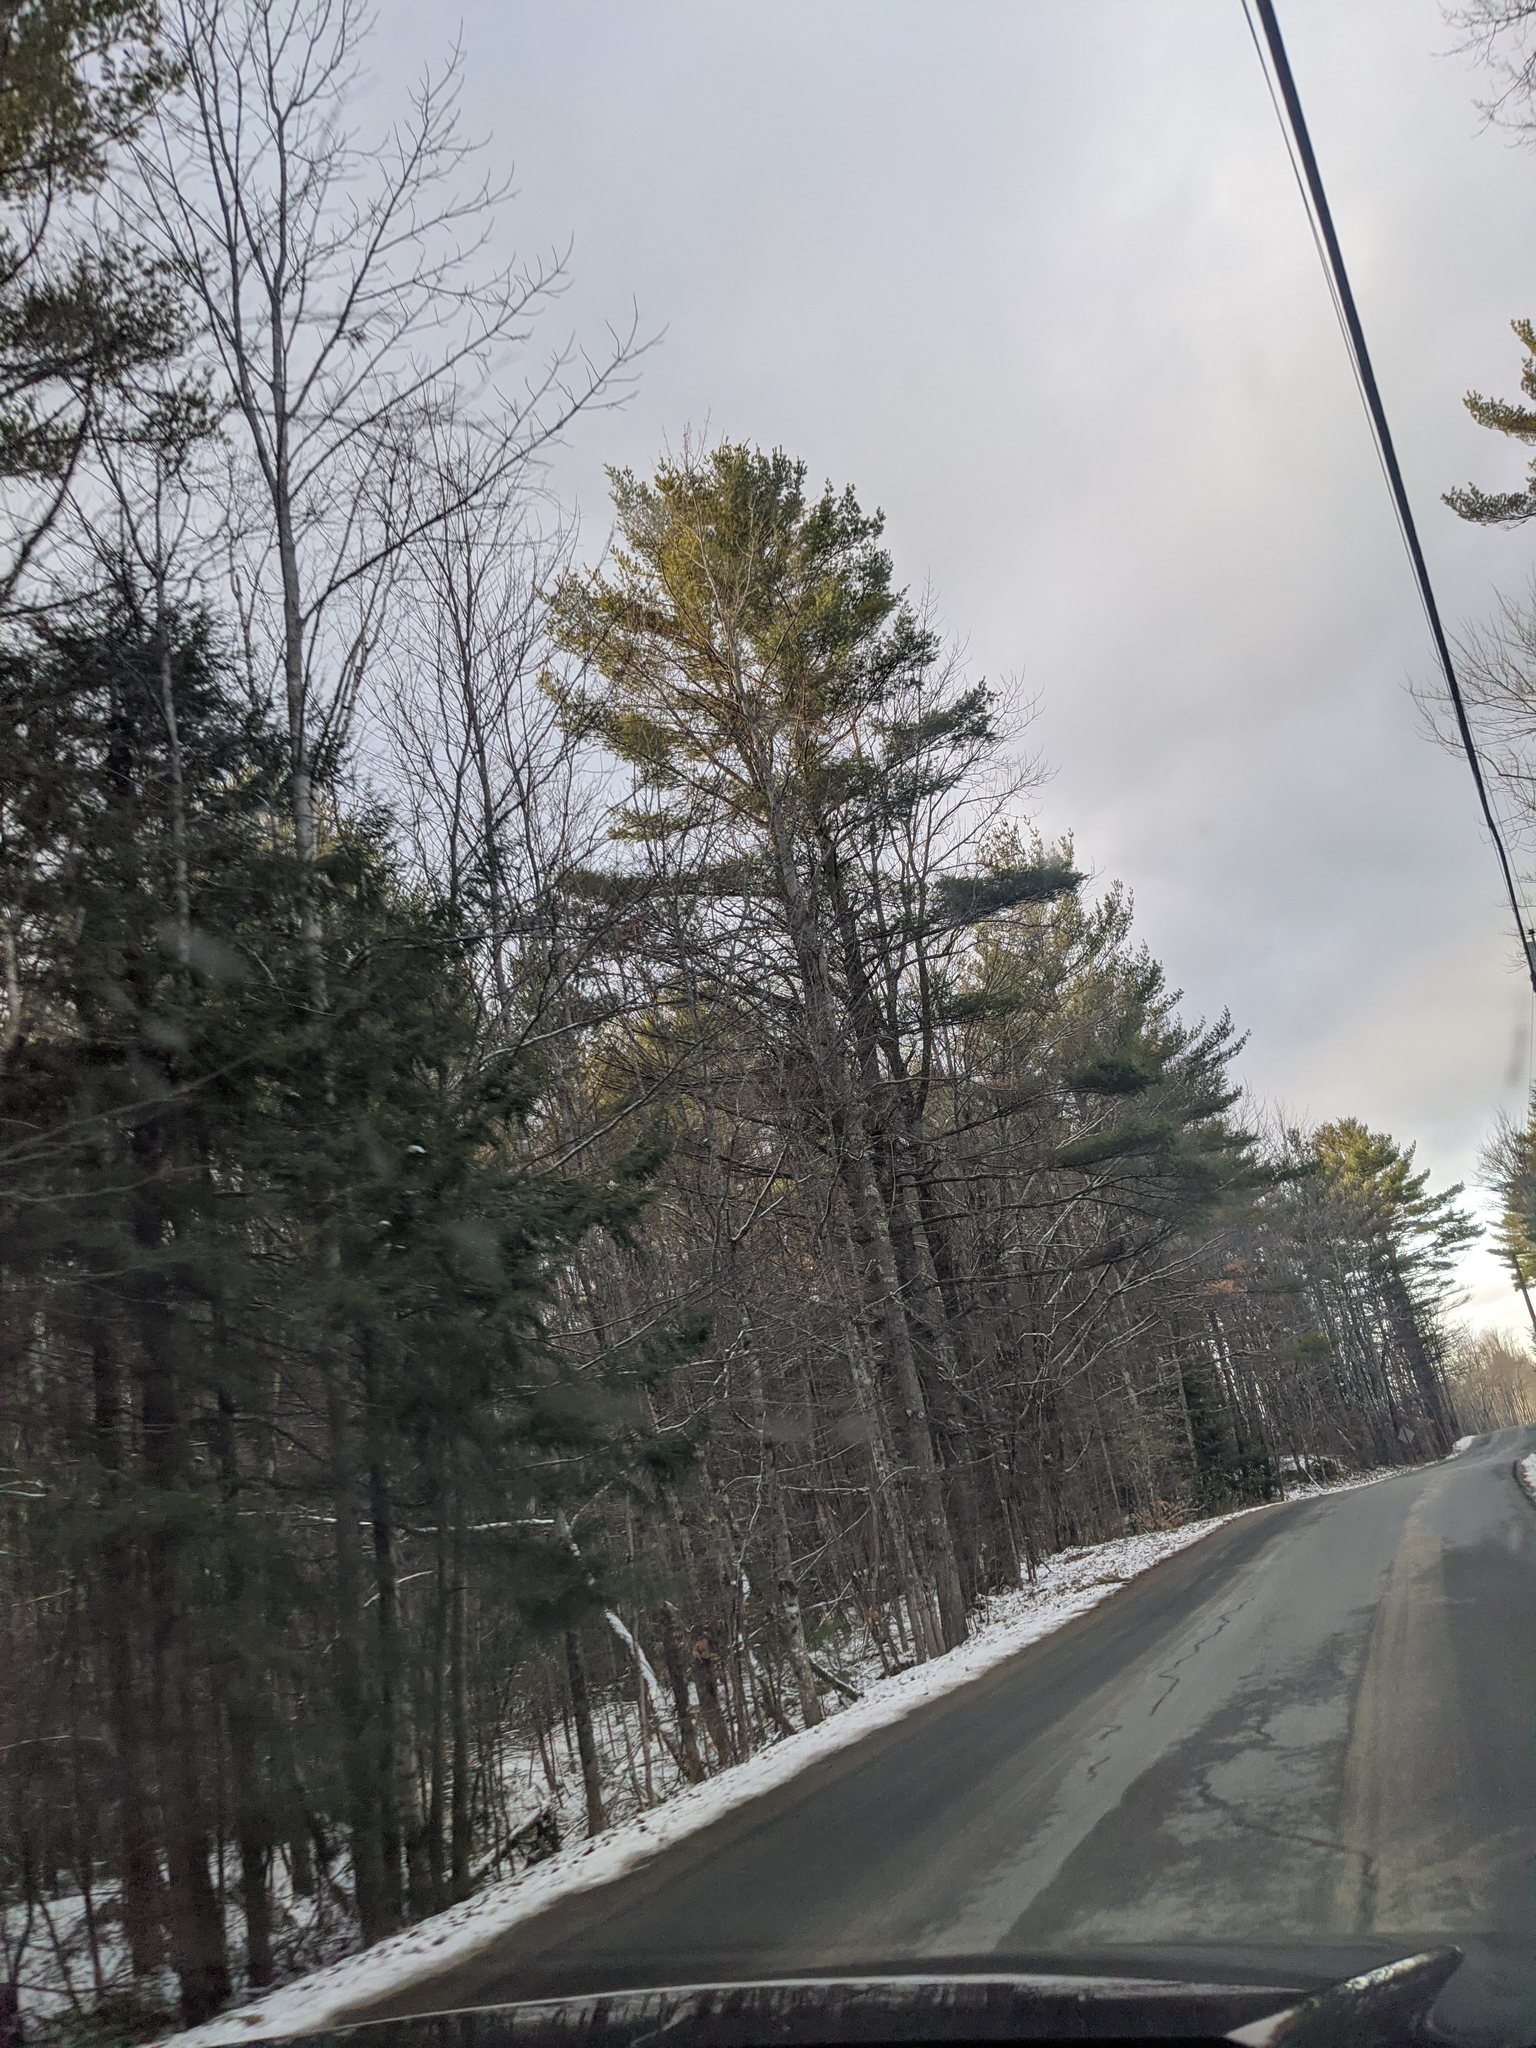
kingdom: Plantae
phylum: Tracheophyta
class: Pinopsida
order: Pinales
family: Pinaceae
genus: Pinus
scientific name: Pinus strobus
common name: Weymouth pine
